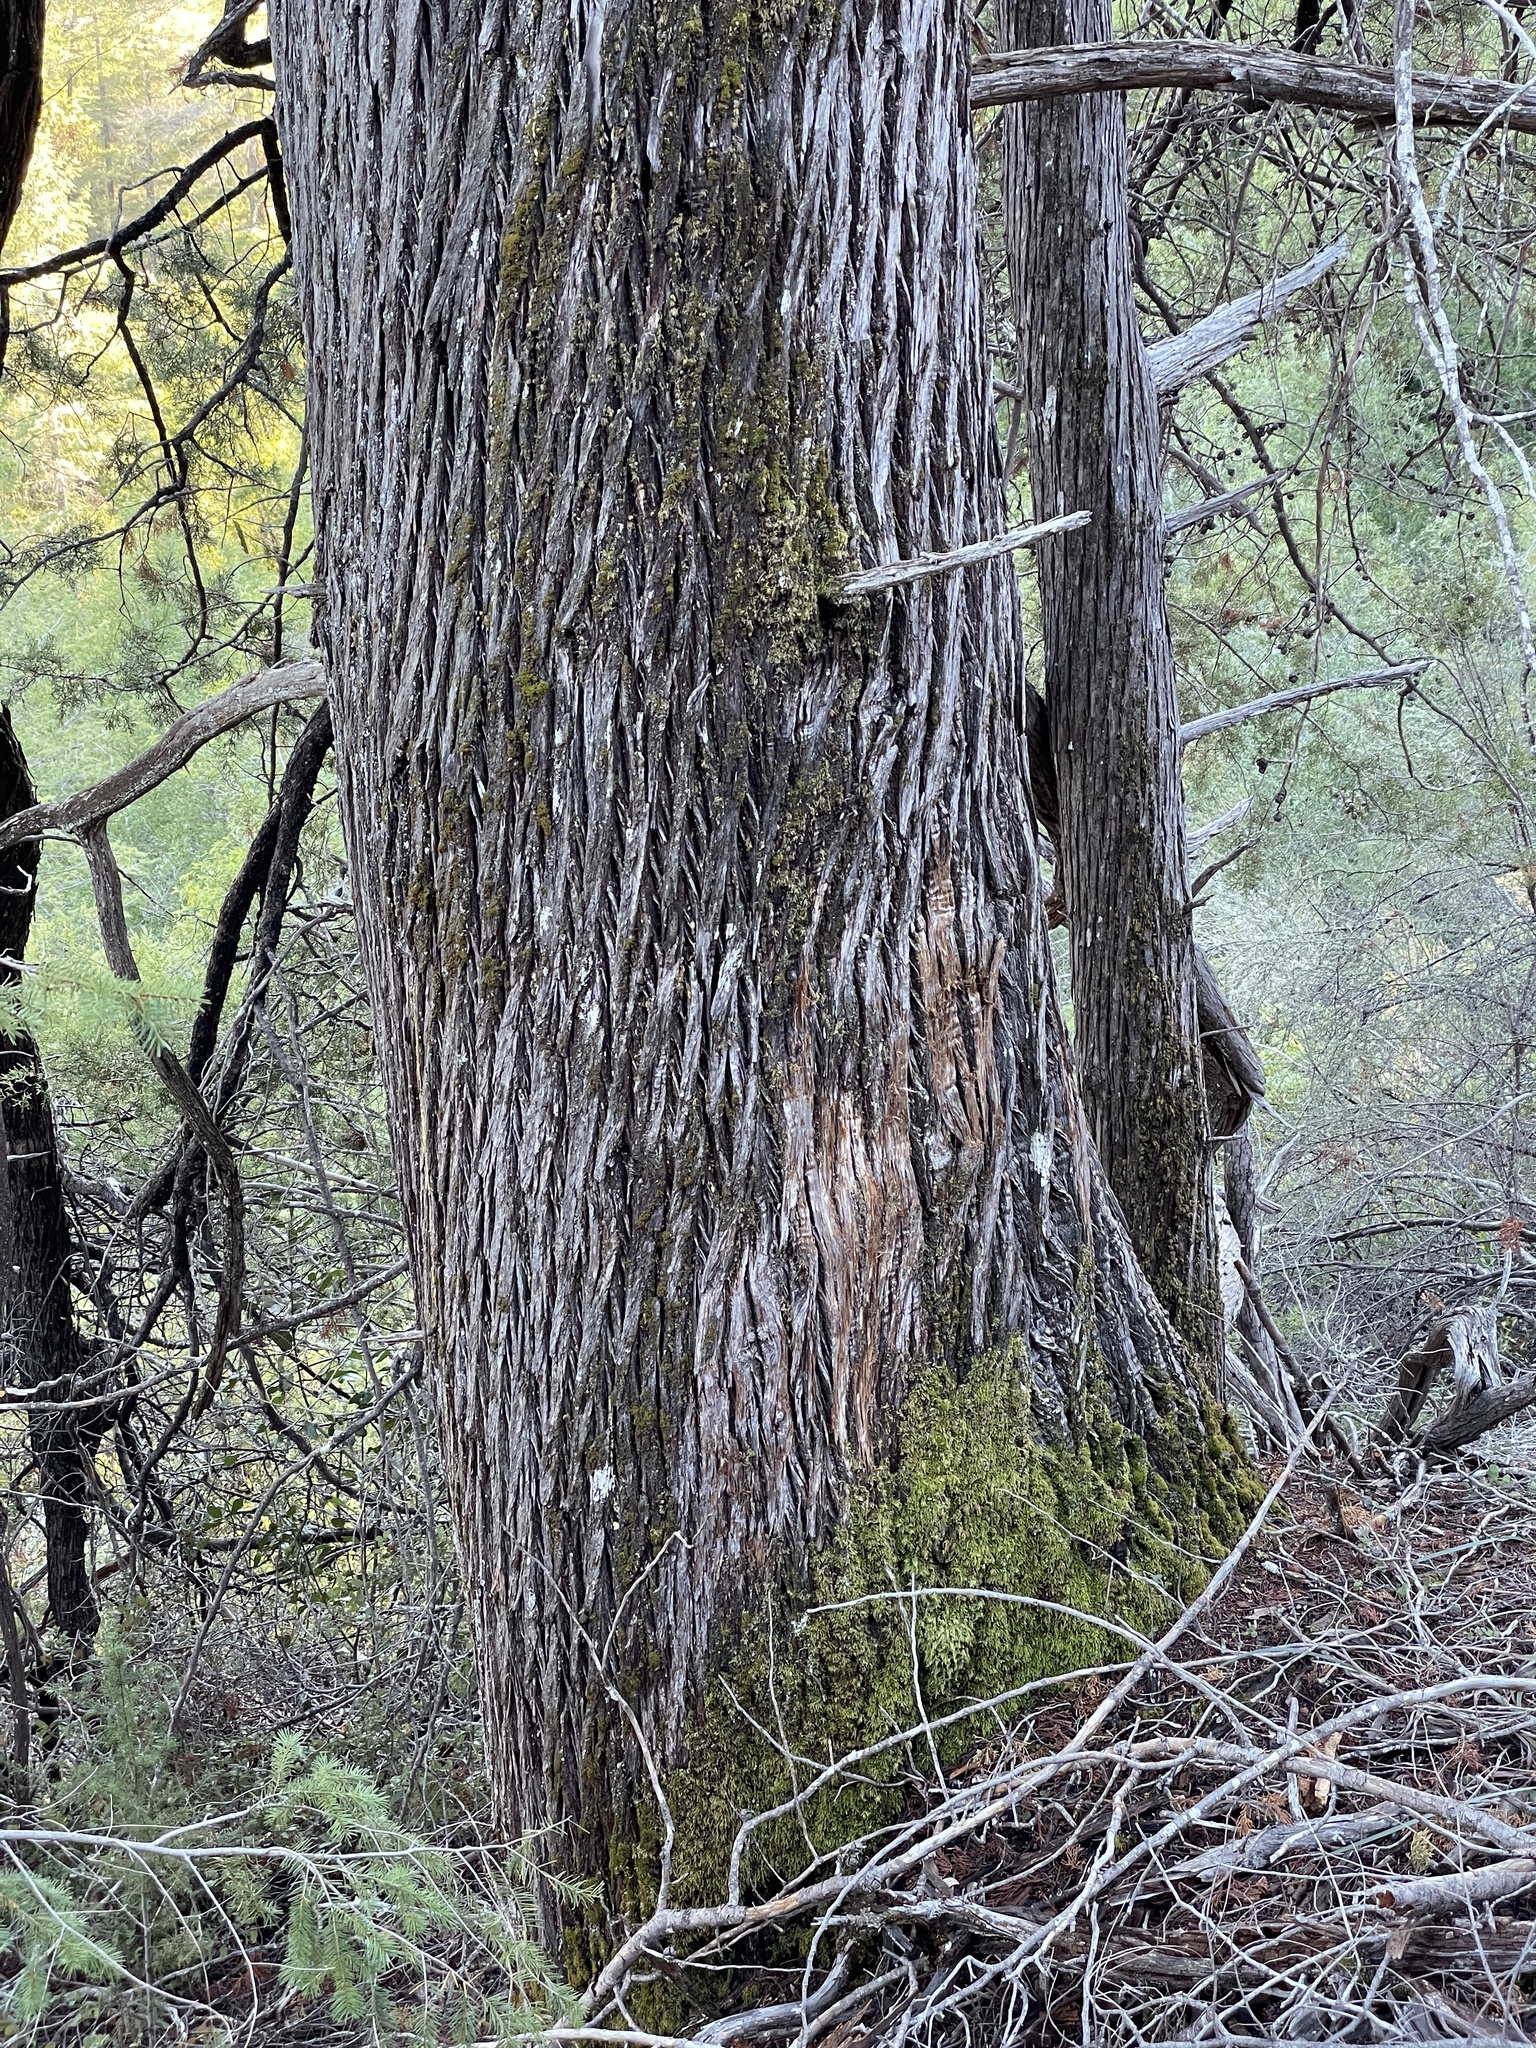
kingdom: Plantae
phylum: Tracheophyta
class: Pinopsida
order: Pinales
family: Cupressaceae
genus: Cupressus
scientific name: Cupressus sargentii
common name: Sargent cypress
